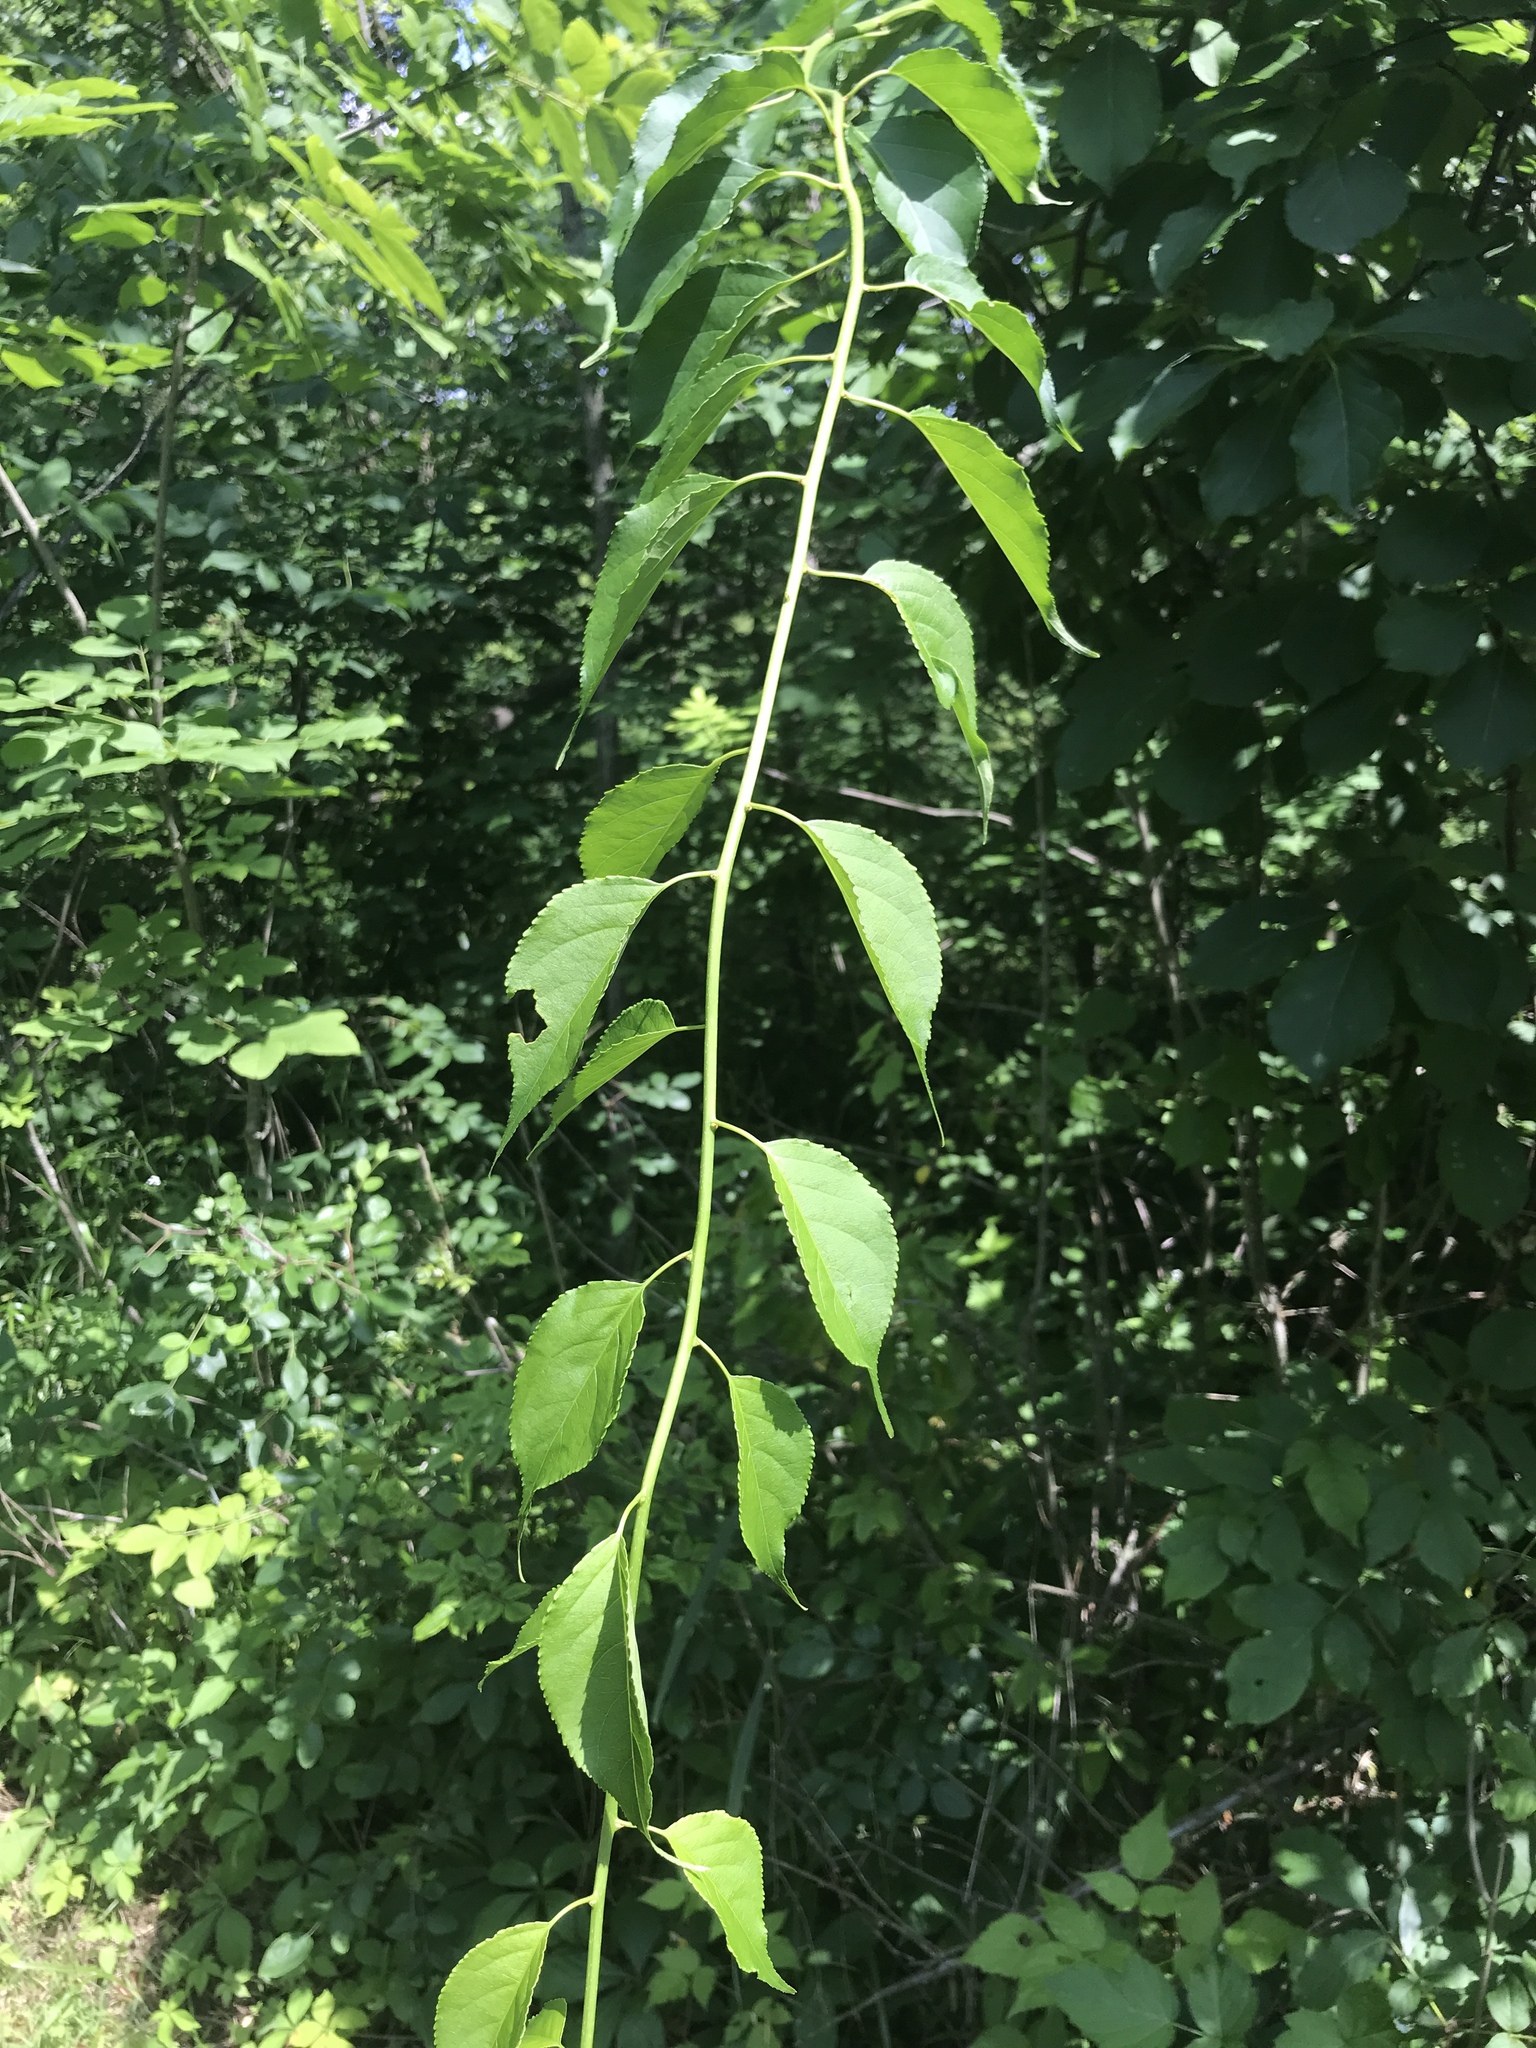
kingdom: Plantae
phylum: Tracheophyta
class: Magnoliopsida
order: Celastrales
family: Celastraceae
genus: Celastrus
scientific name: Celastrus orbiculatus
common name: Oriental bittersweet
